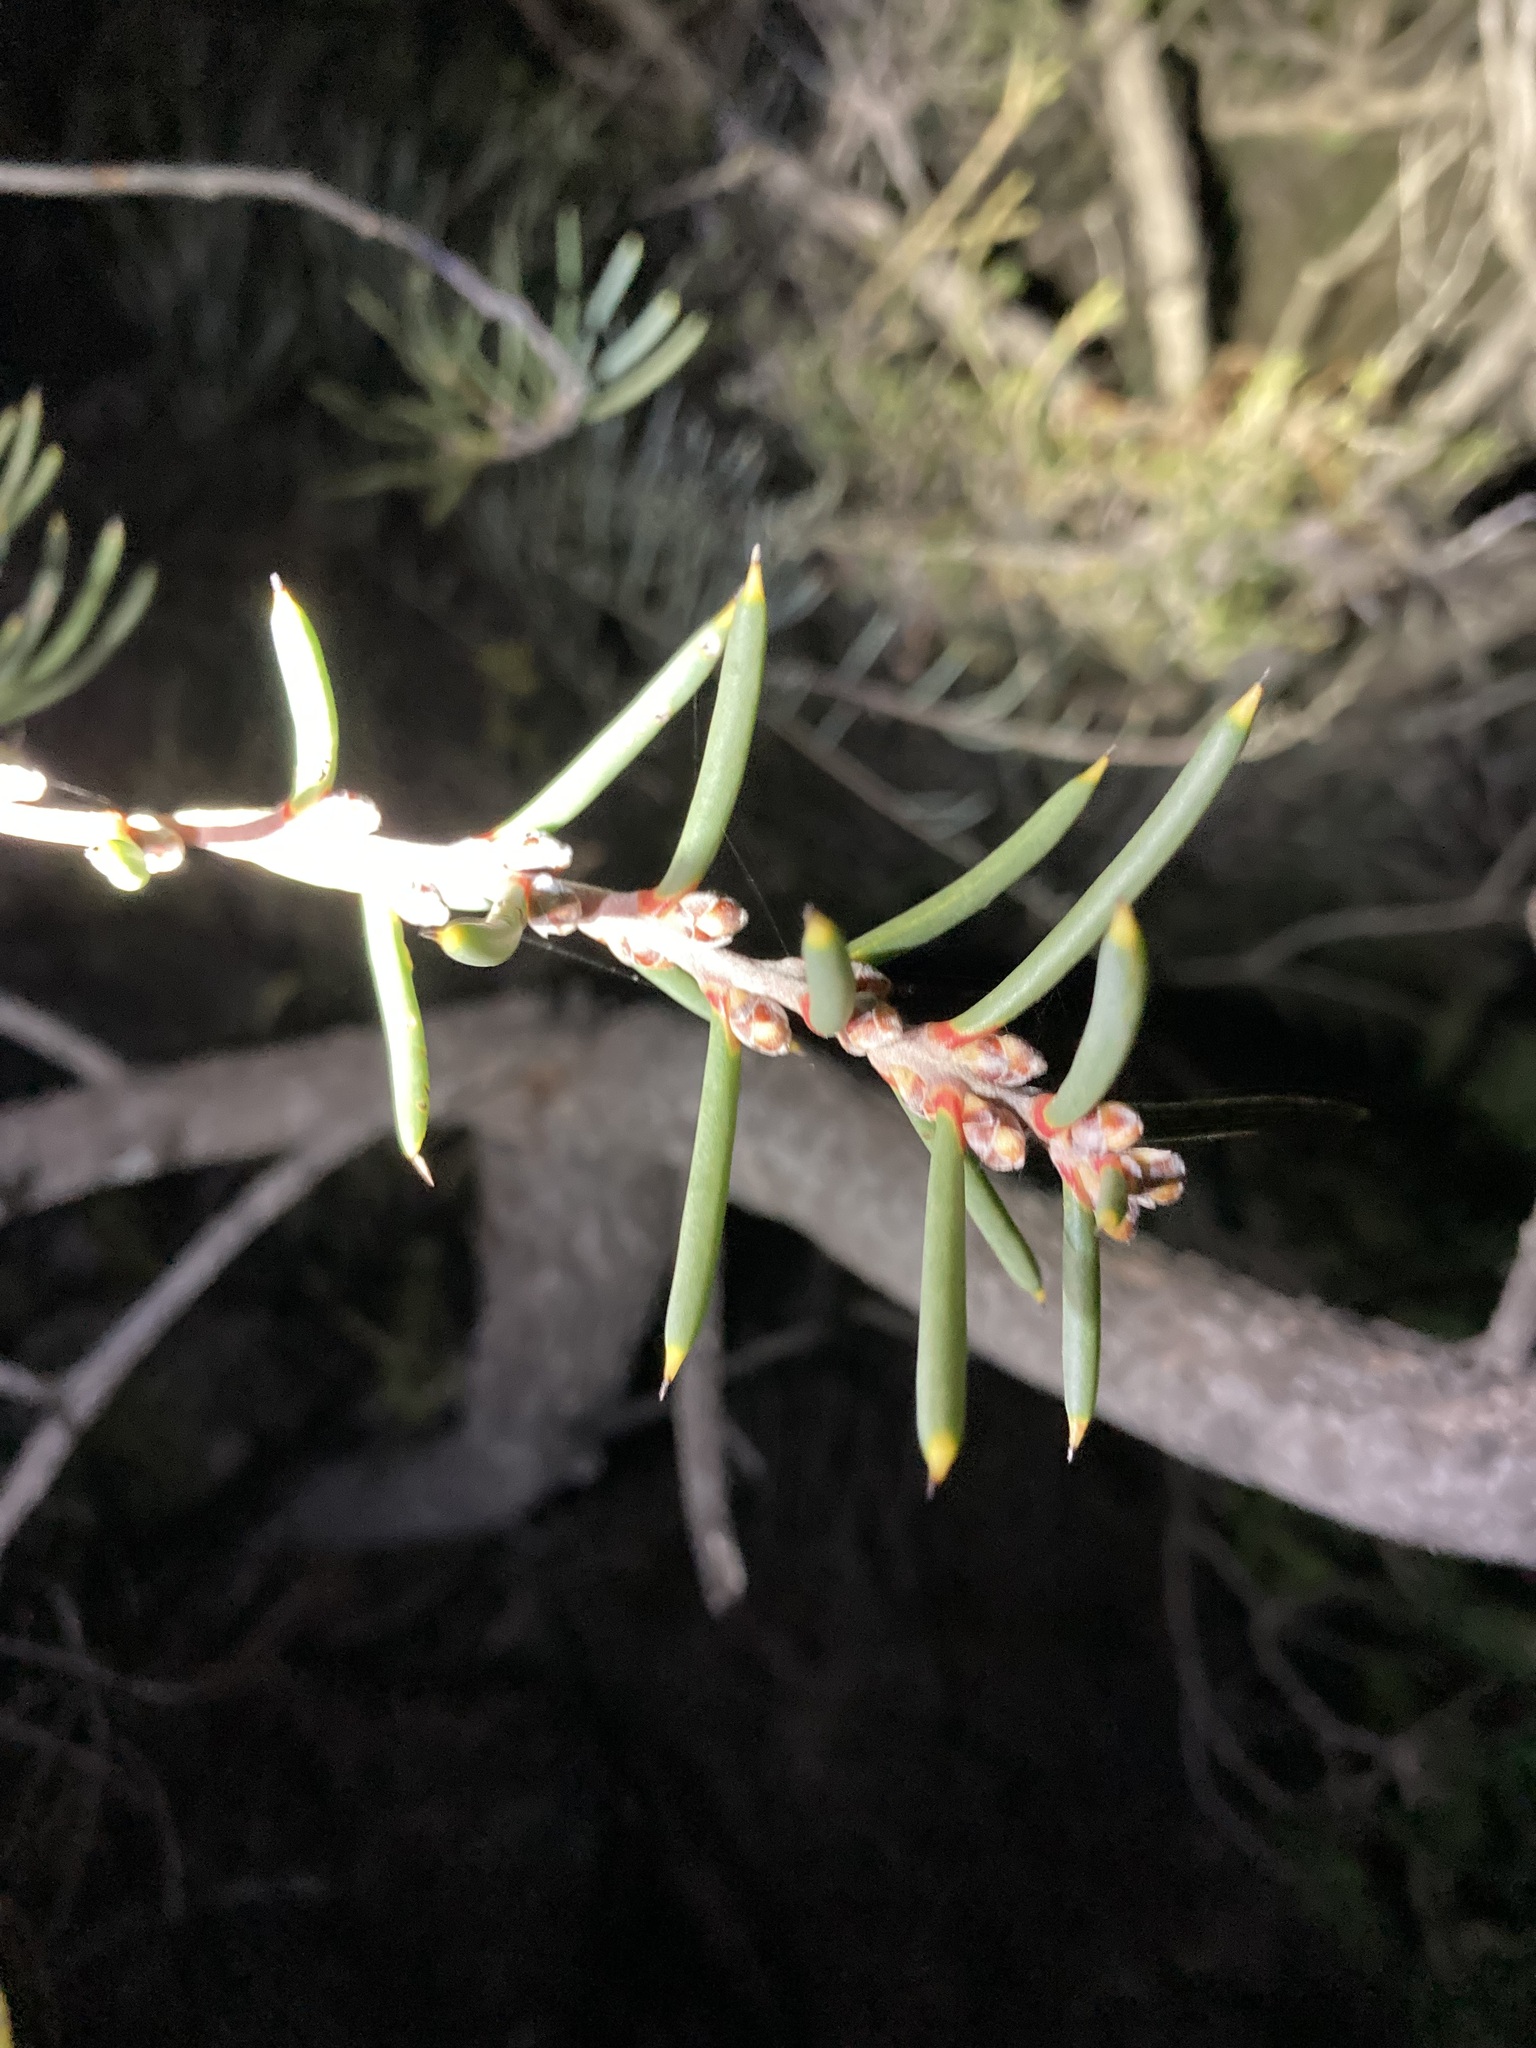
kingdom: Plantae
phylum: Tracheophyta
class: Magnoliopsida
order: Proteales
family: Proteaceae
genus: Hakea
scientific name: Hakea psilorrhyncha
